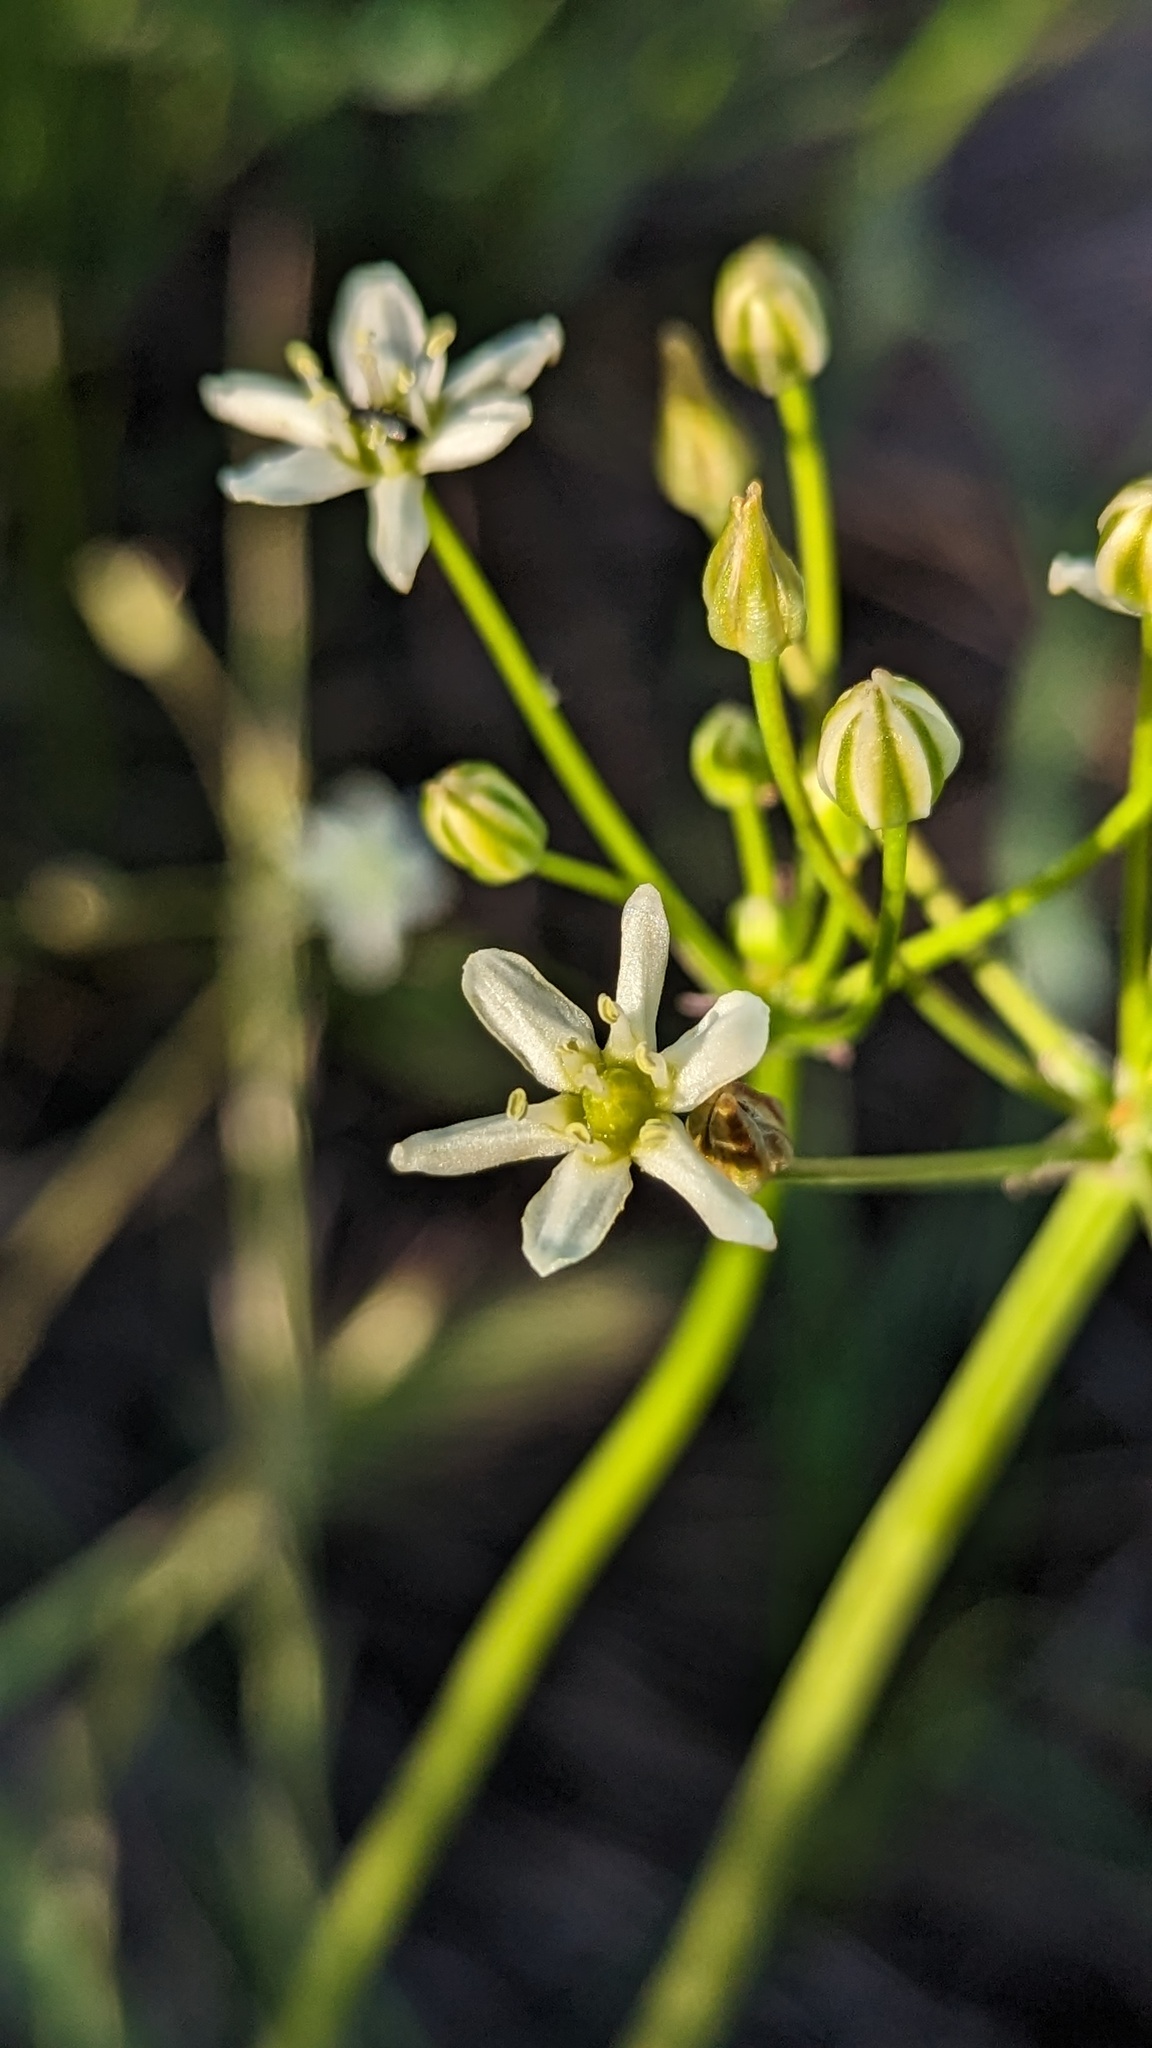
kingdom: Plantae
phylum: Tracheophyta
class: Liliopsida
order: Asparagales
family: Asparagaceae
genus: Muilla
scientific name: Muilla maritima
